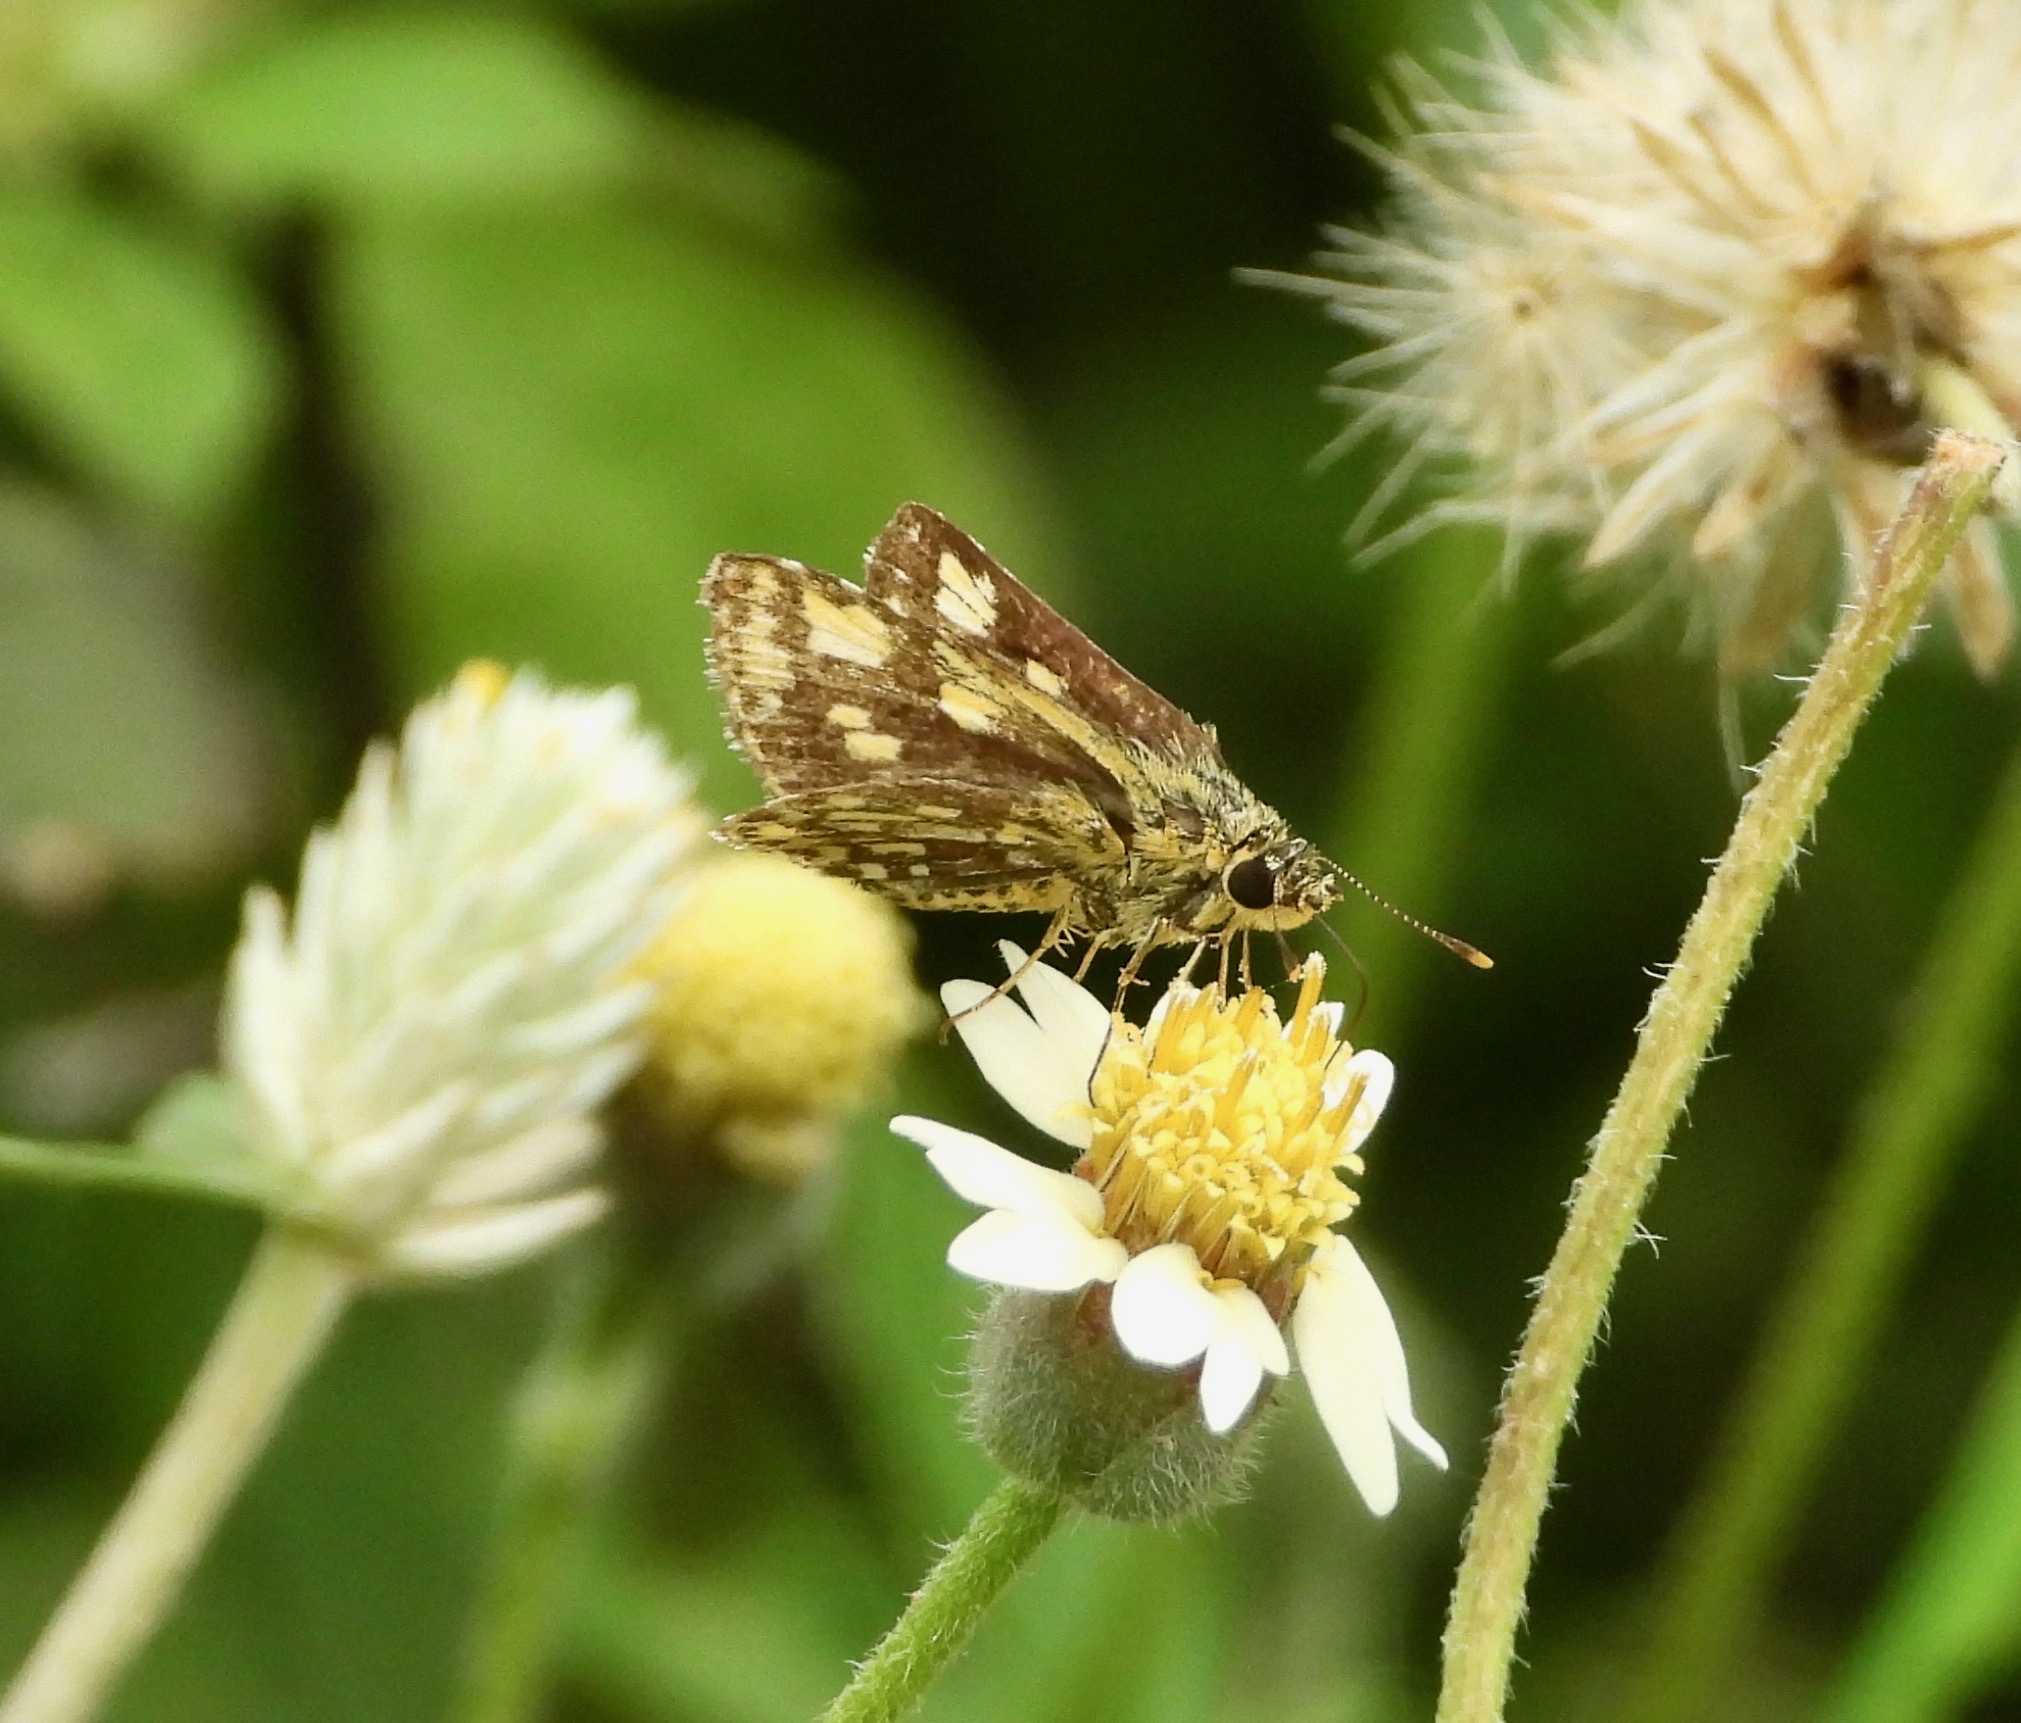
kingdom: Animalia
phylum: Arthropoda
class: Insecta
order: Lepidoptera
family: Hesperiidae
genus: Ampittia
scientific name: Ampittia dioscorides
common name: Common bush hopper
